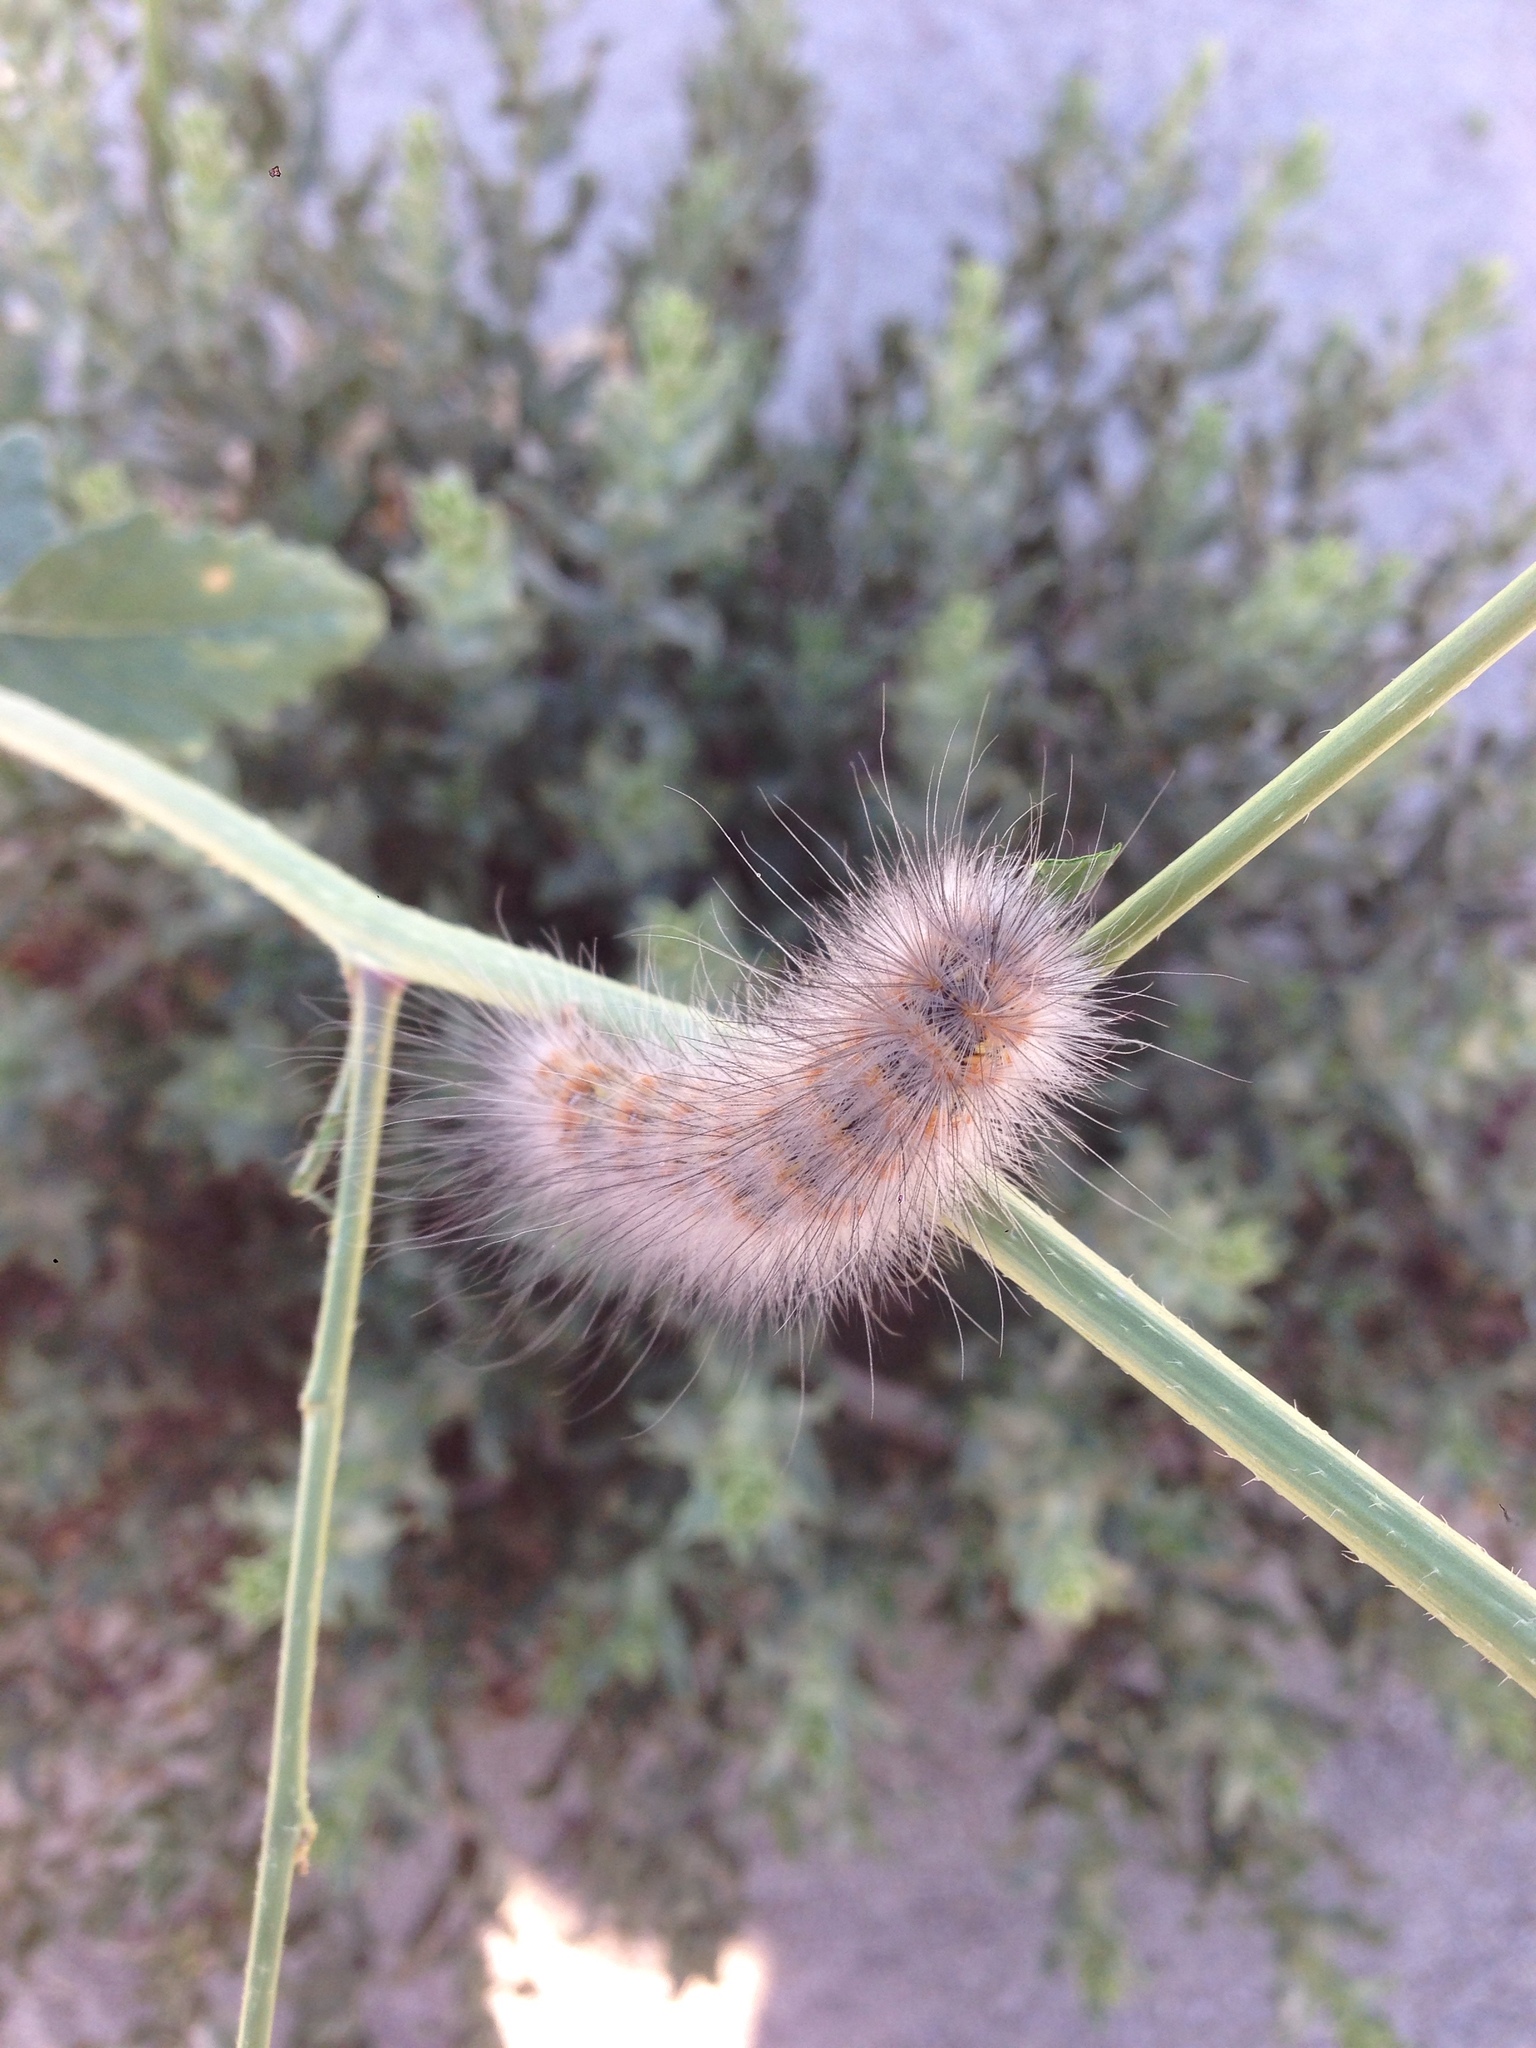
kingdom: Animalia
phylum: Arthropoda
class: Insecta
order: Lepidoptera
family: Erebidae
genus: Estigmene
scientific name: Estigmene acrea
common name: Salt marsh moth
